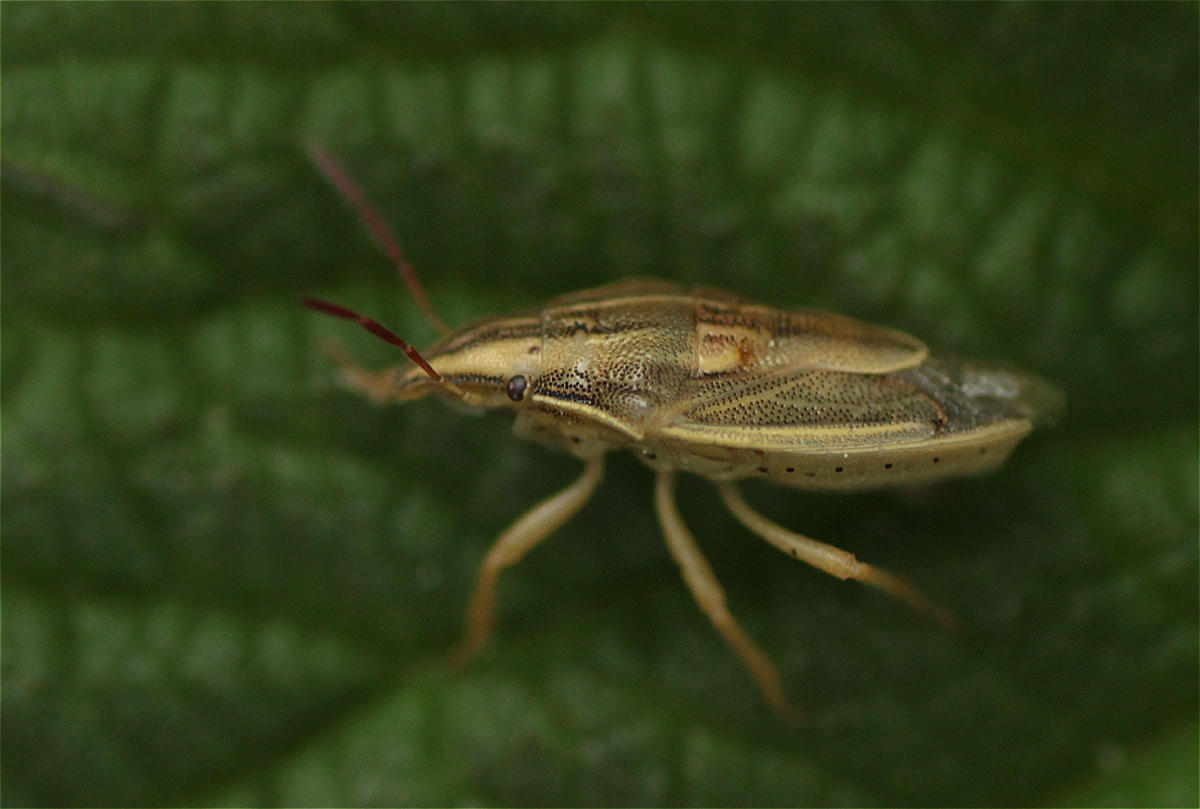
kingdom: Animalia
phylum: Arthropoda
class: Insecta
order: Hemiptera
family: Pentatomidae
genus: Aelia
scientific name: Aelia acuminata
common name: Bishop's mitre
